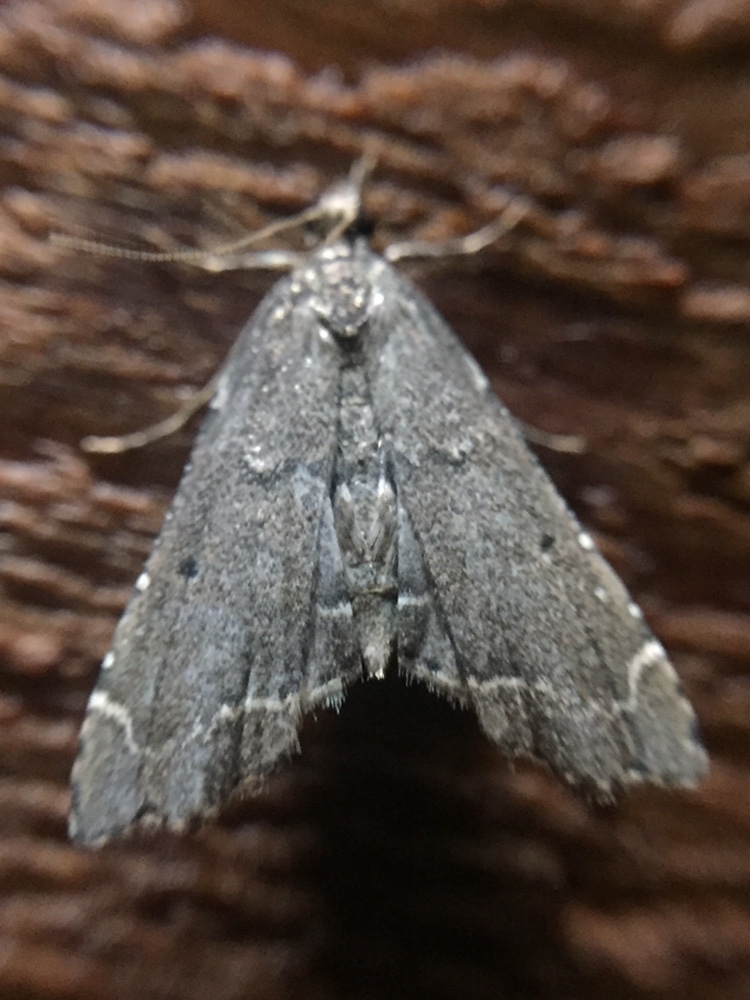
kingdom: Animalia
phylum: Arthropoda
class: Insecta
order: Lepidoptera
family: Crambidae
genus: Diplopseustis
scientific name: Diplopseustis perieresalis
